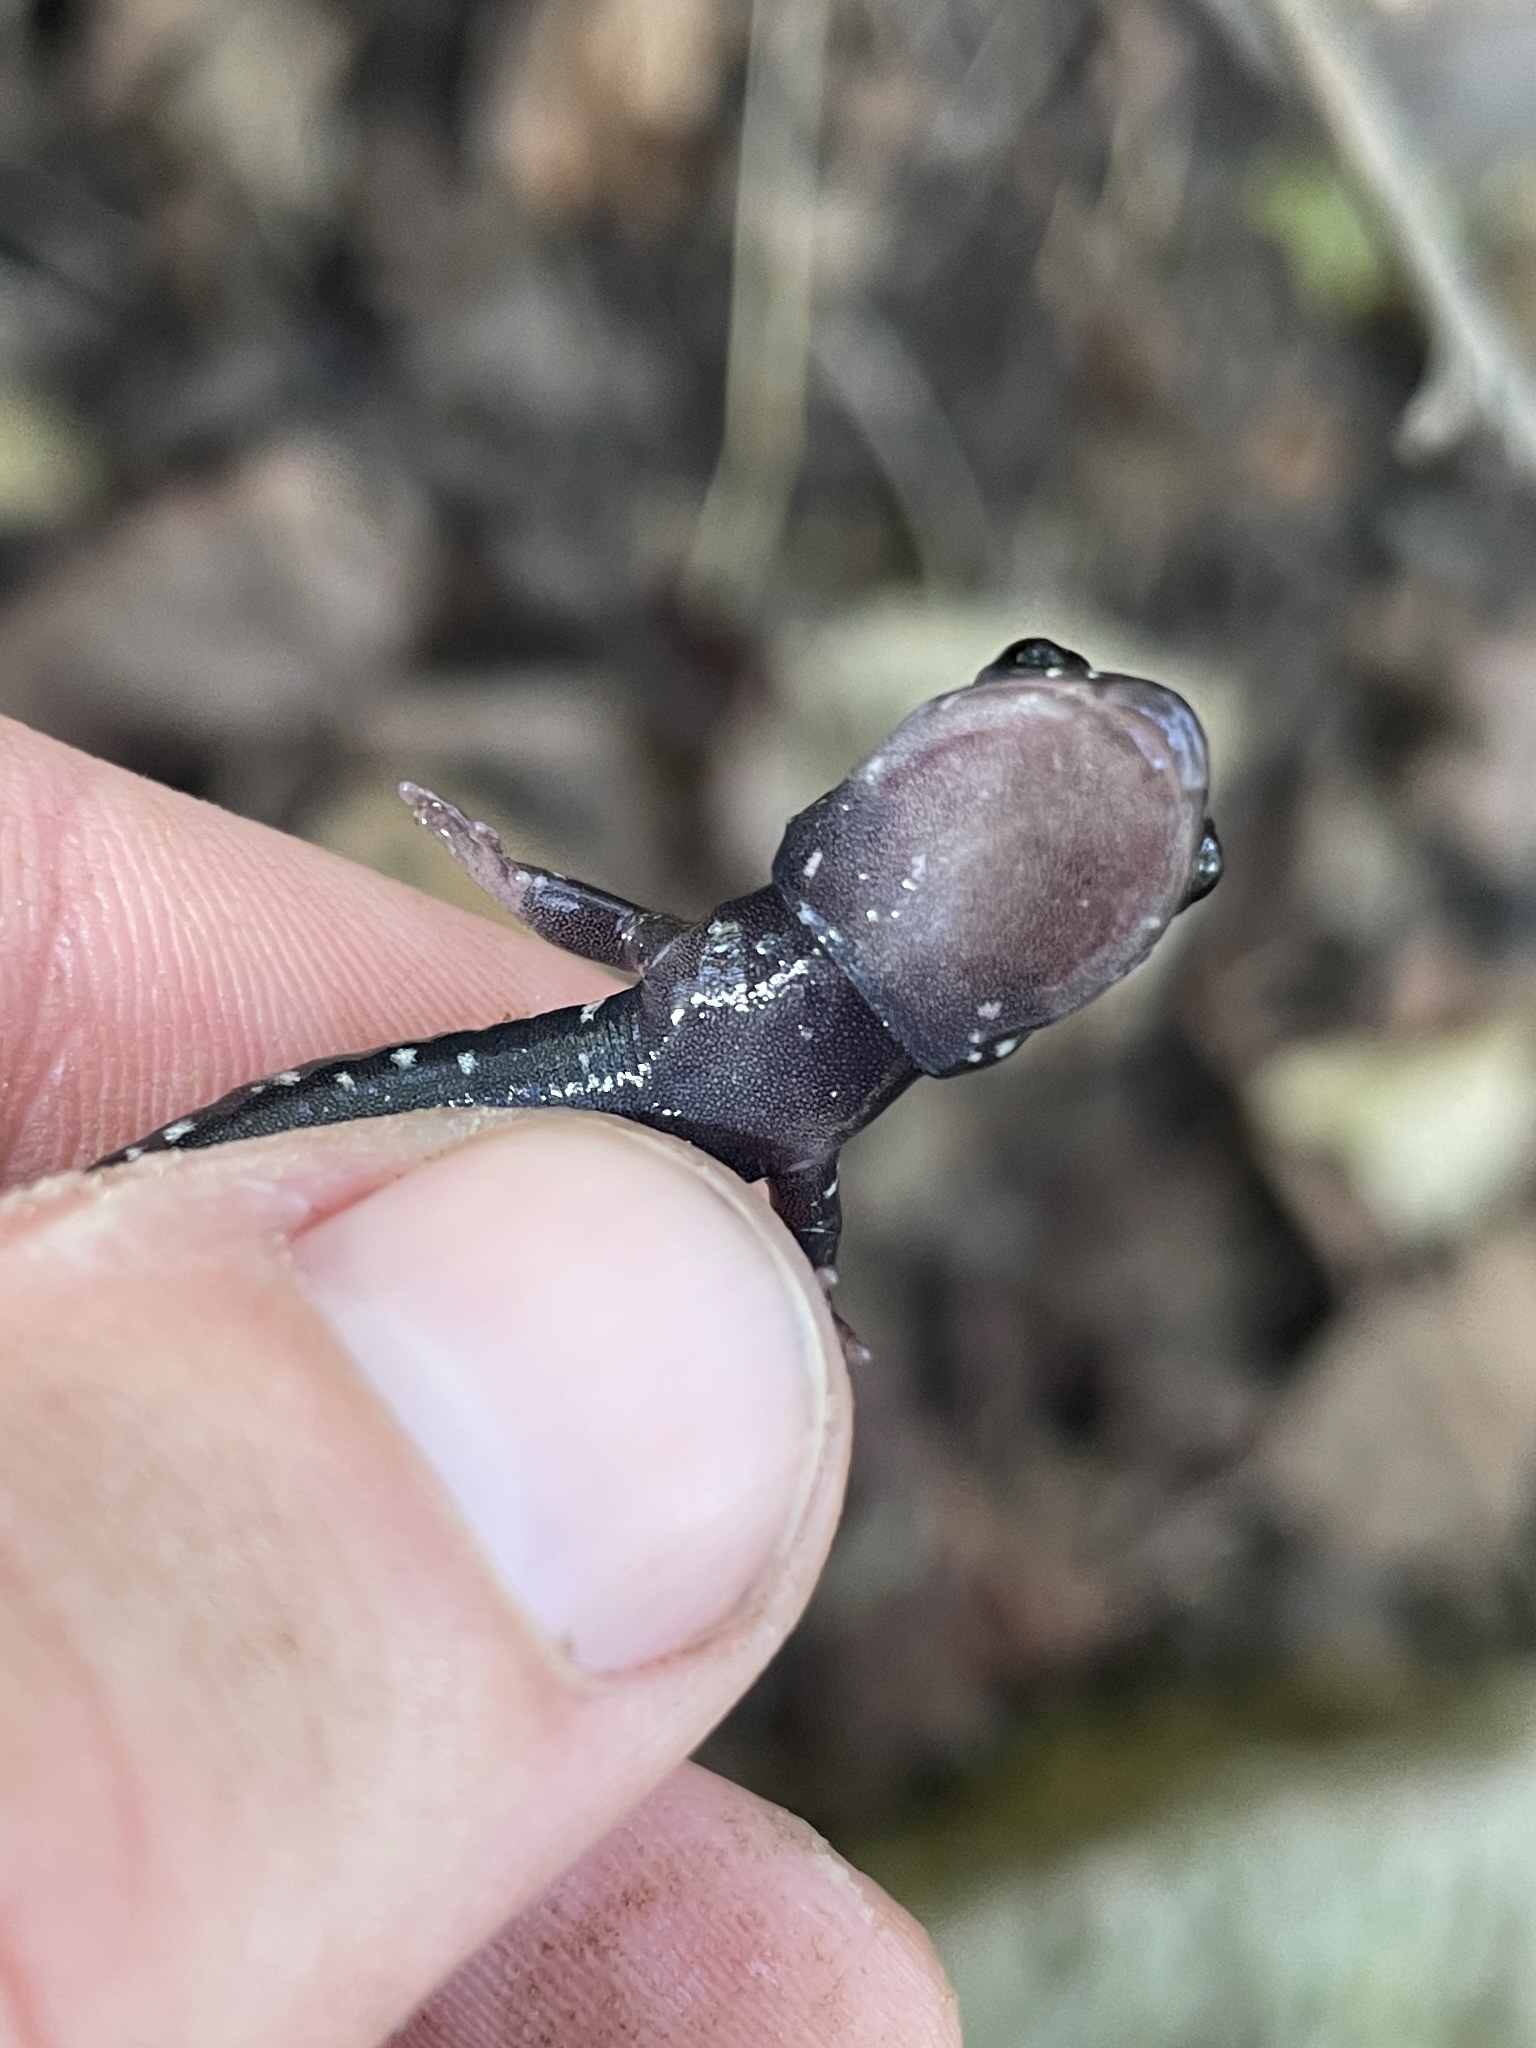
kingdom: Animalia
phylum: Chordata
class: Amphibia
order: Caudata
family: Plethodontidae
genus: Plethodon
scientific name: Plethodon kiamichi
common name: Kiamichi slimy salamander
